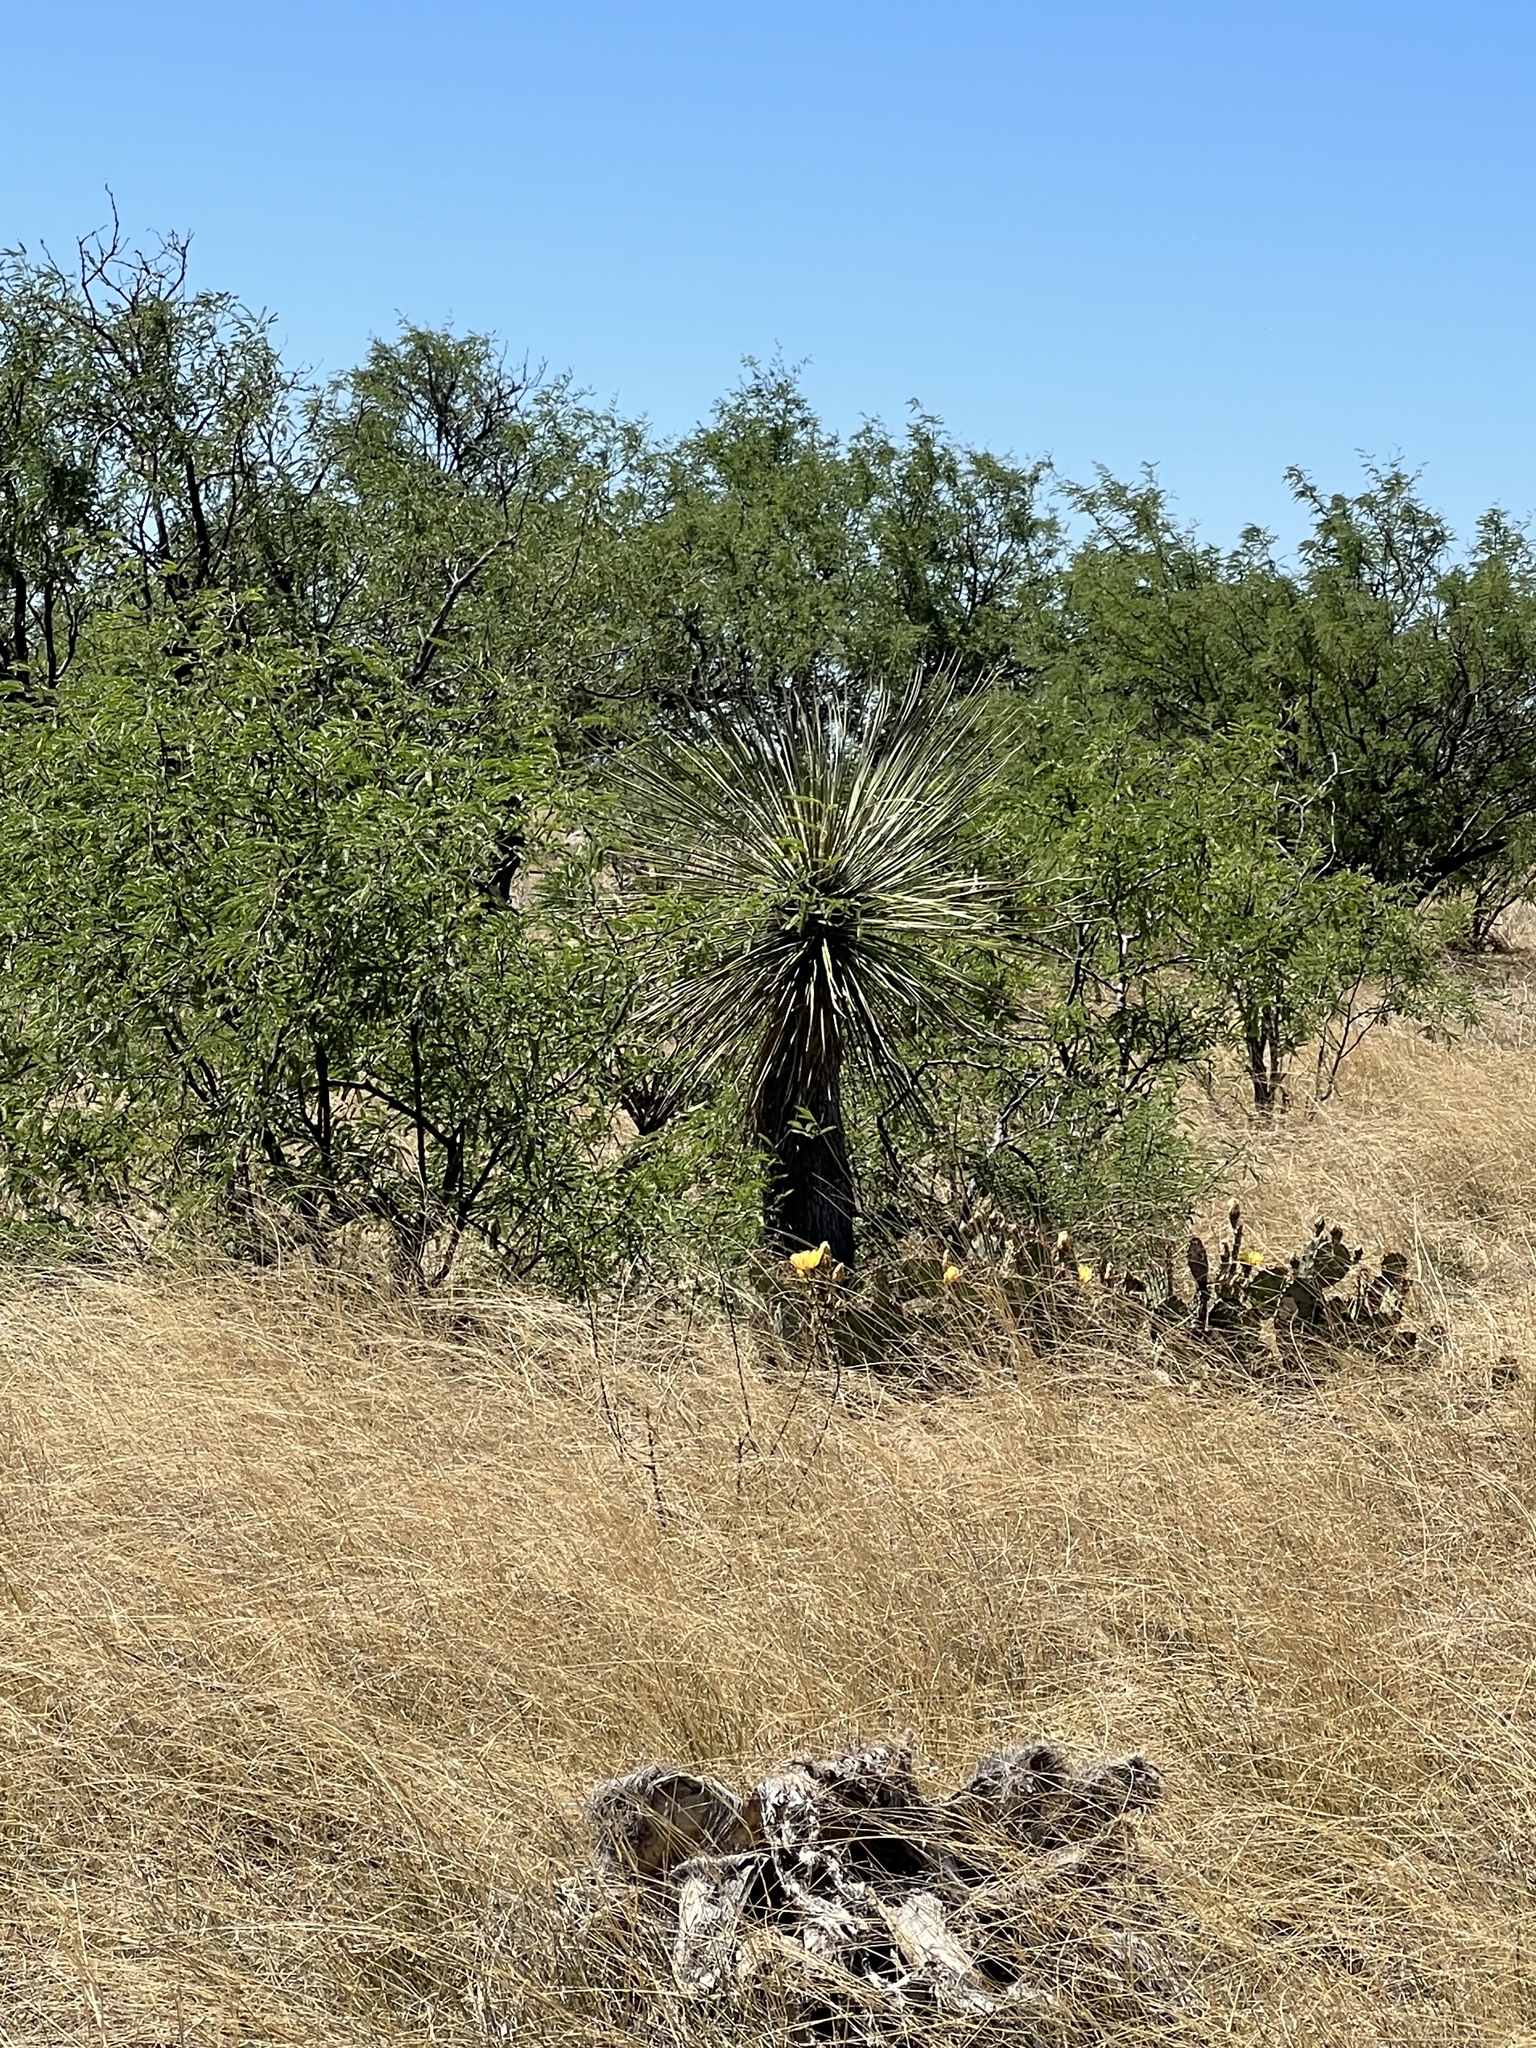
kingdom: Plantae
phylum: Tracheophyta
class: Liliopsida
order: Asparagales
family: Asparagaceae
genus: Yucca
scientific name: Yucca elata
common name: Palmella
